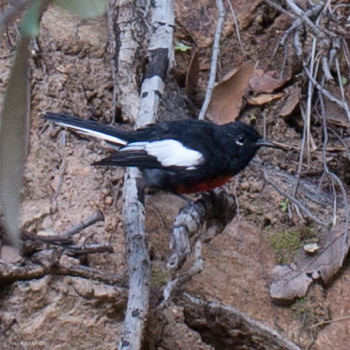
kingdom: Animalia
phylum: Chordata
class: Aves
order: Passeriformes
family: Parulidae
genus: Myioborus
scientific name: Myioborus pictus
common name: Painted whitestart
